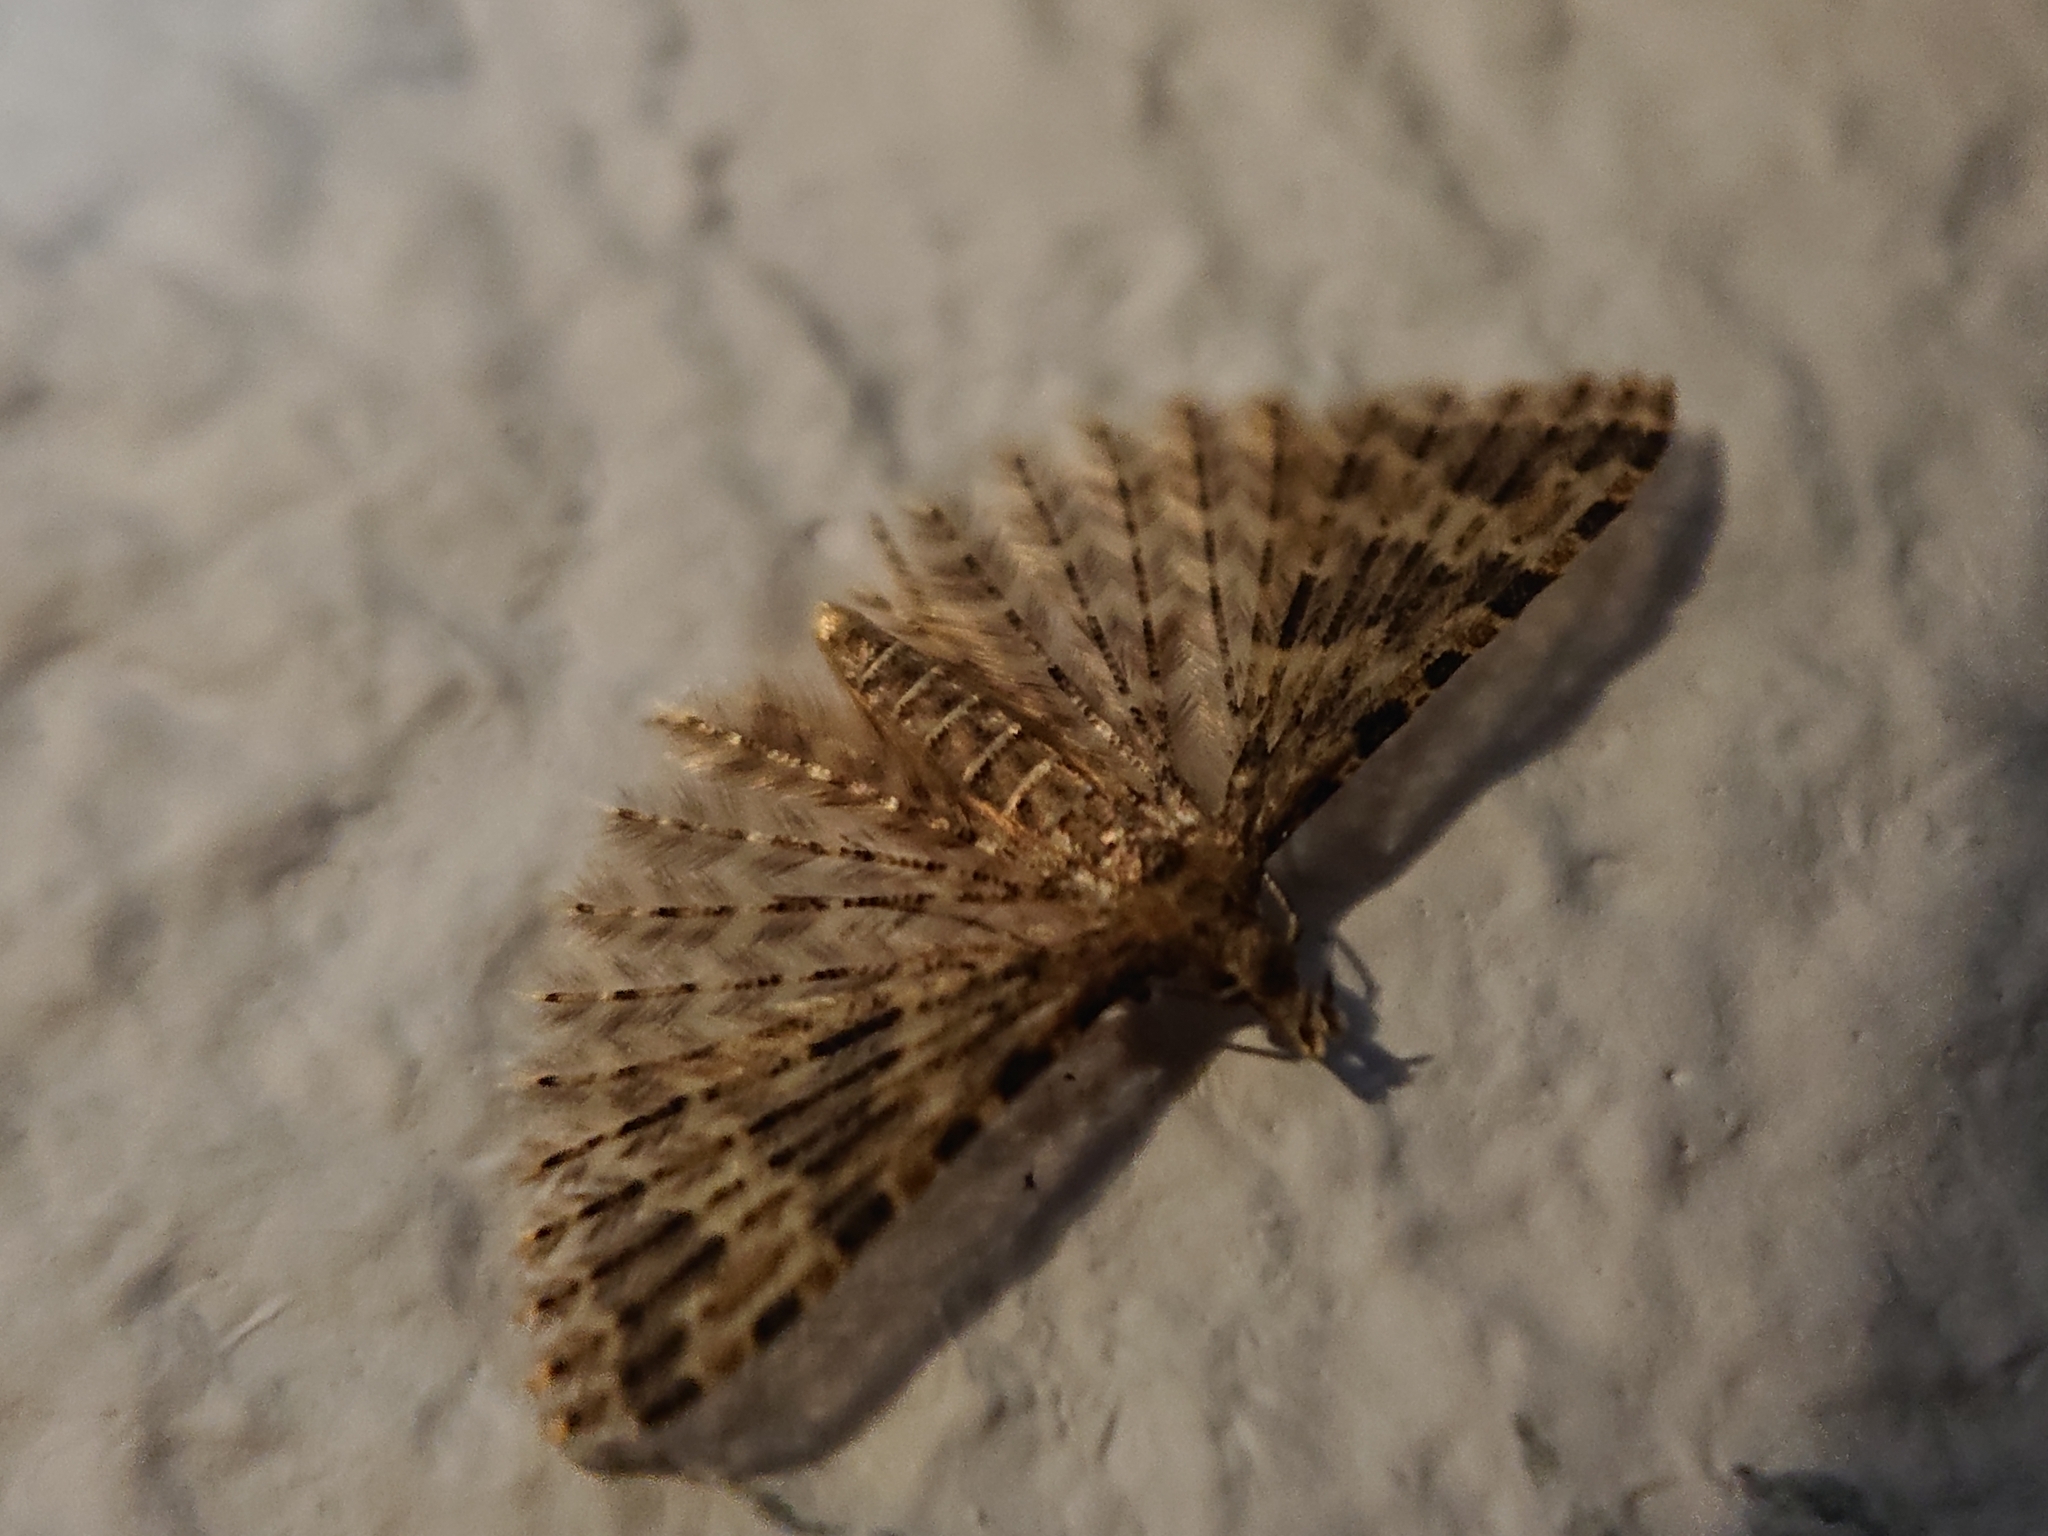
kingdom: Animalia
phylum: Arthropoda
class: Insecta
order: Lepidoptera
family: Alucitidae
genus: Alucita
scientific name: Alucita hexadactyla
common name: Twenty-plume moth
